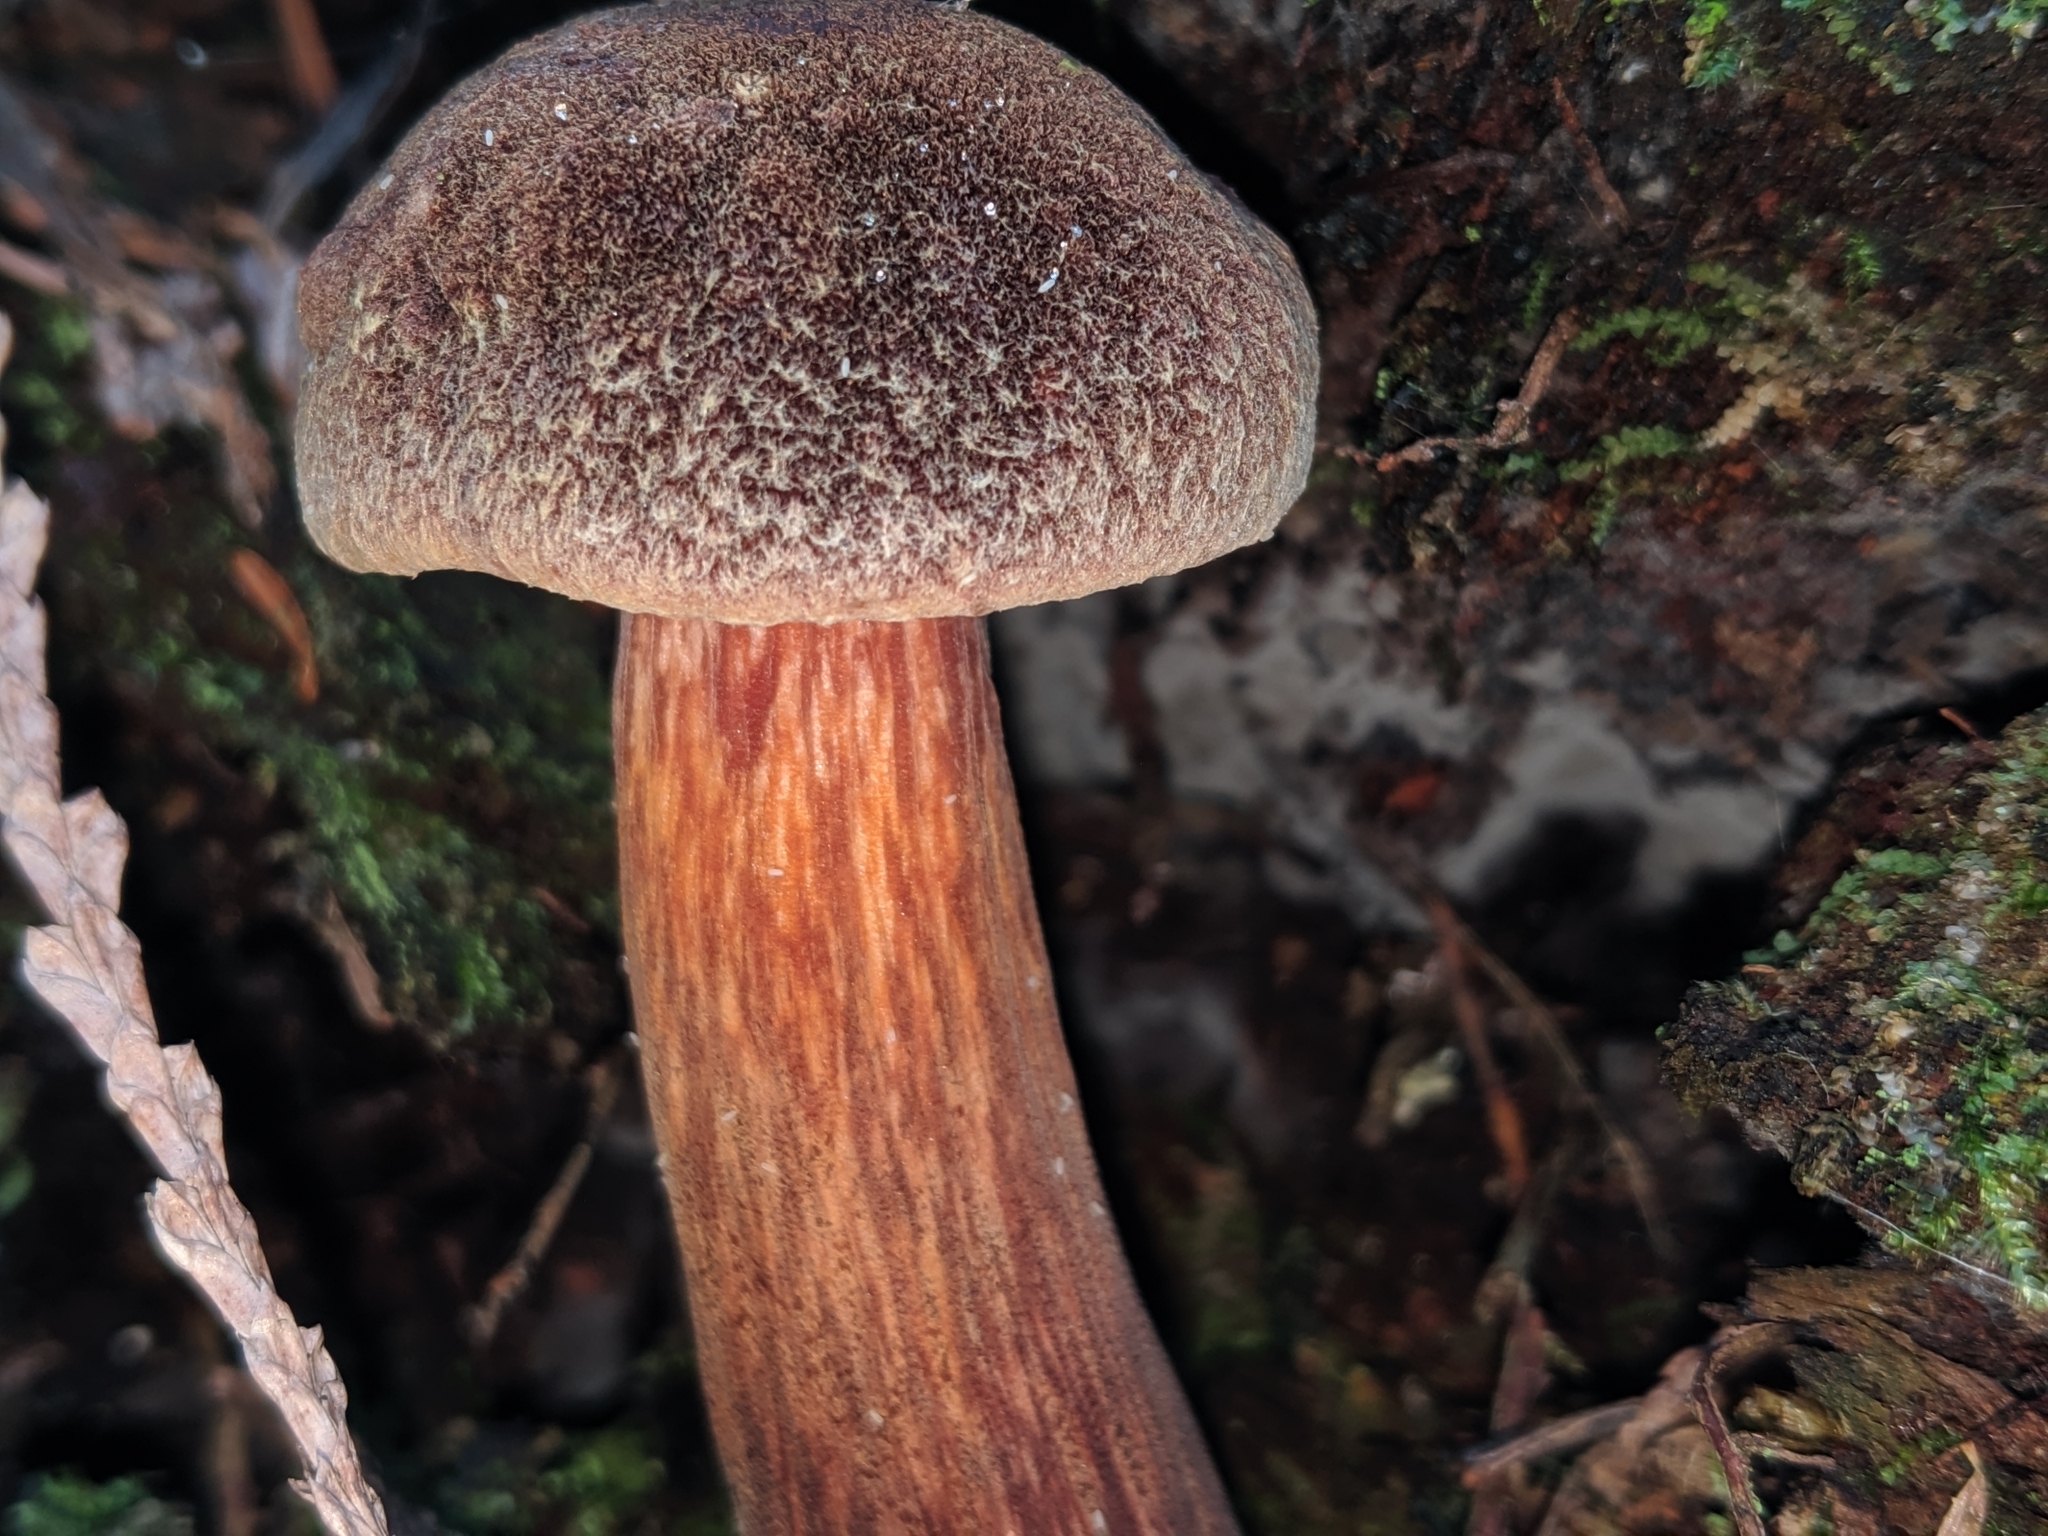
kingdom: Fungi
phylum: Basidiomycota
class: Agaricomycetes
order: Boletales
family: Boletaceae
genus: Aureoboletus
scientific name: Aureoboletus mirabilis
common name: Admirable bolete
